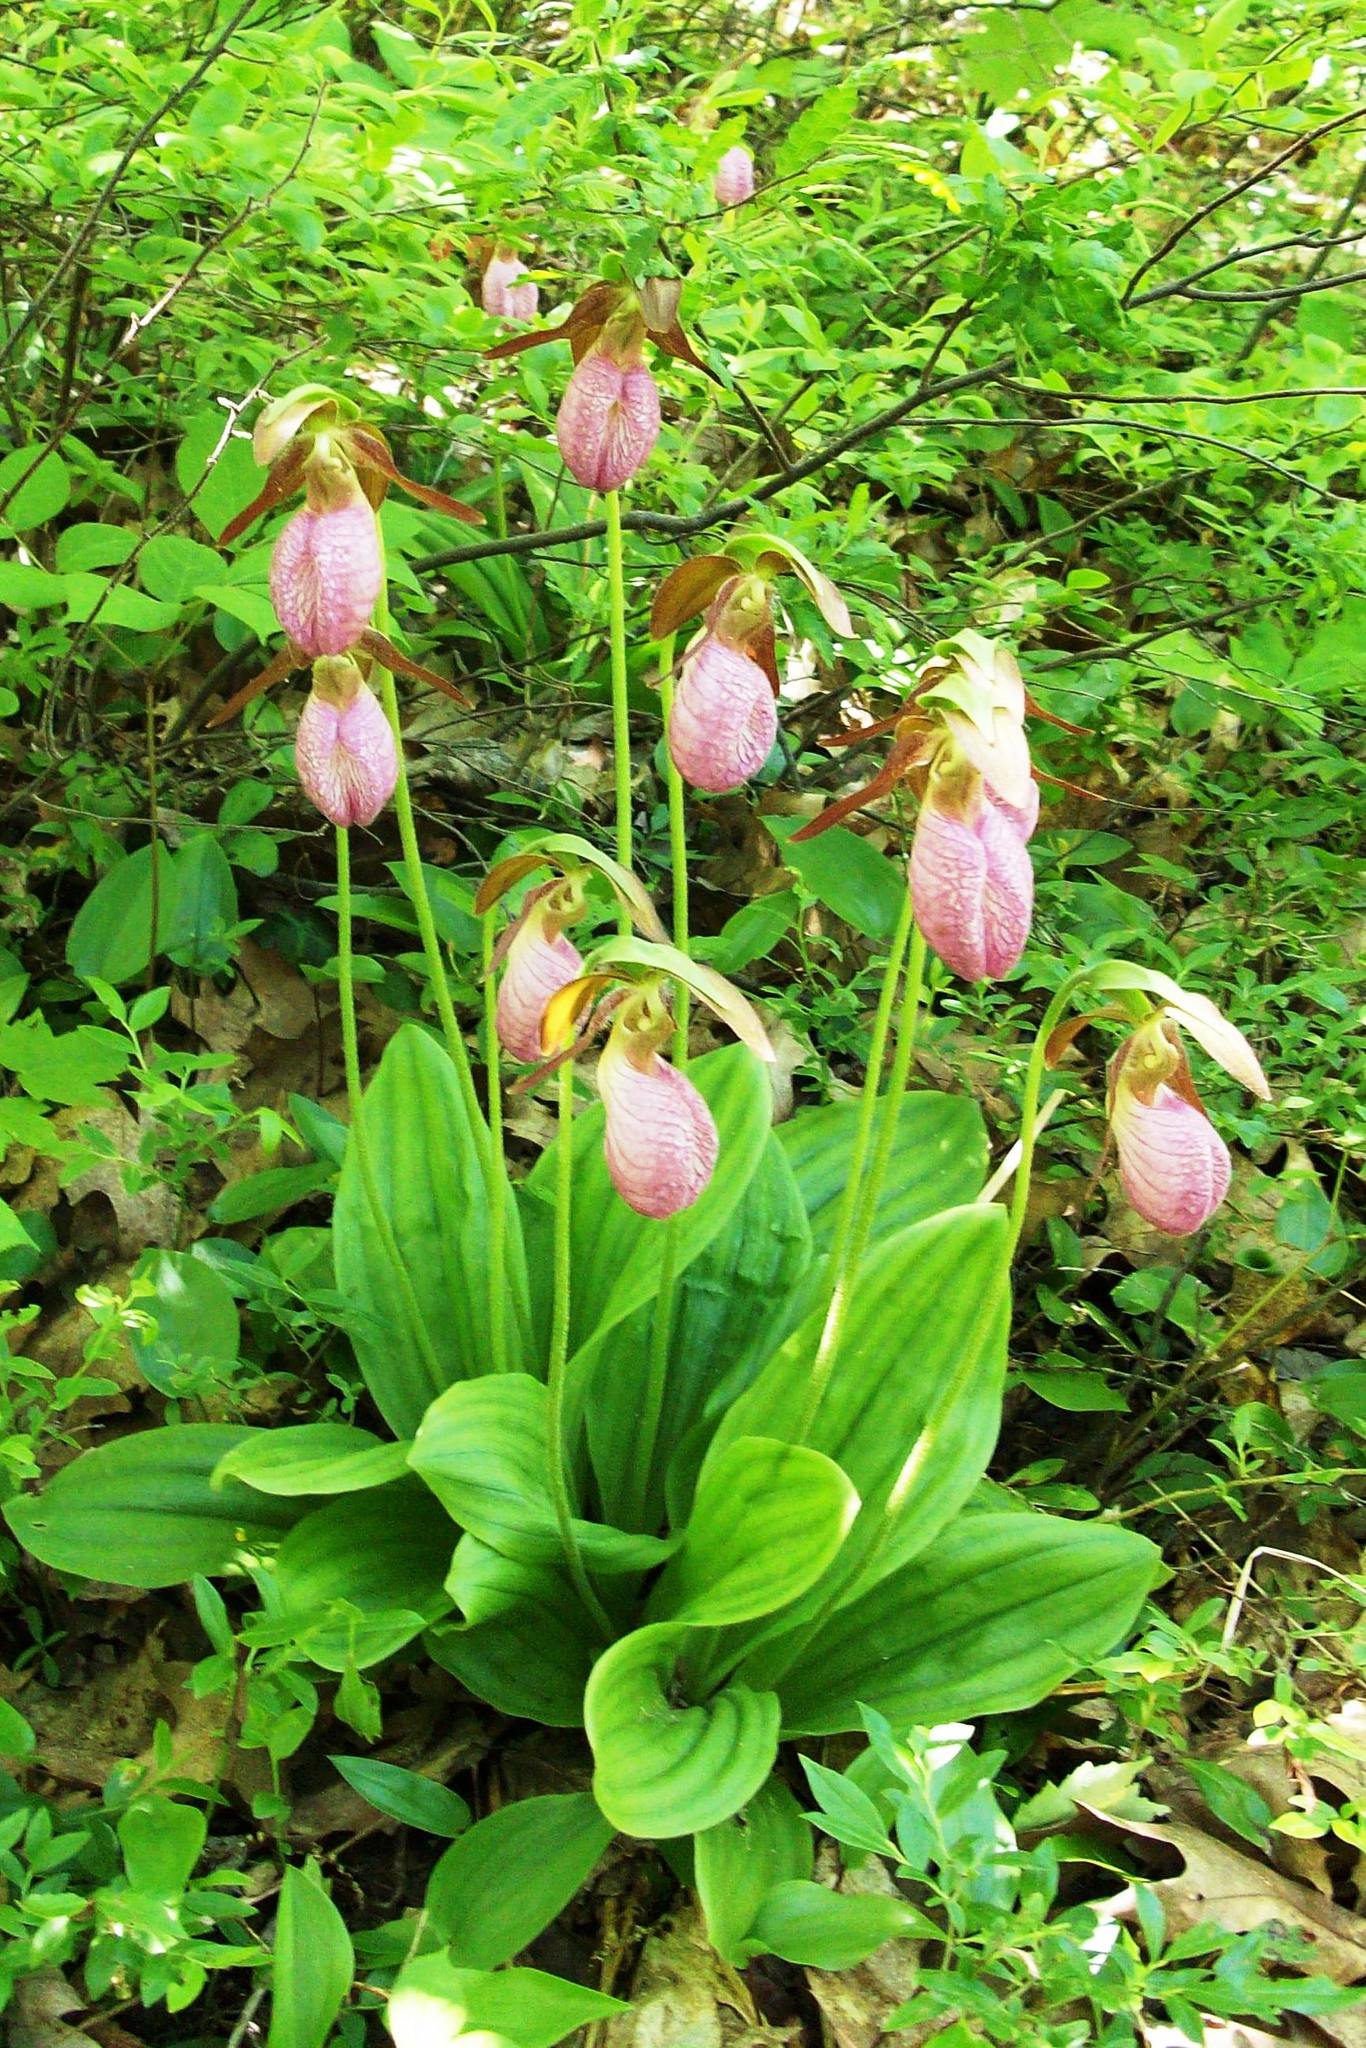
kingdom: Plantae
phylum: Tracheophyta
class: Liliopsida
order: Asparagales
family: Orchidaceae
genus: Cypripedium
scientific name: Cypripedium acaule
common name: Pink lady's-slipper
